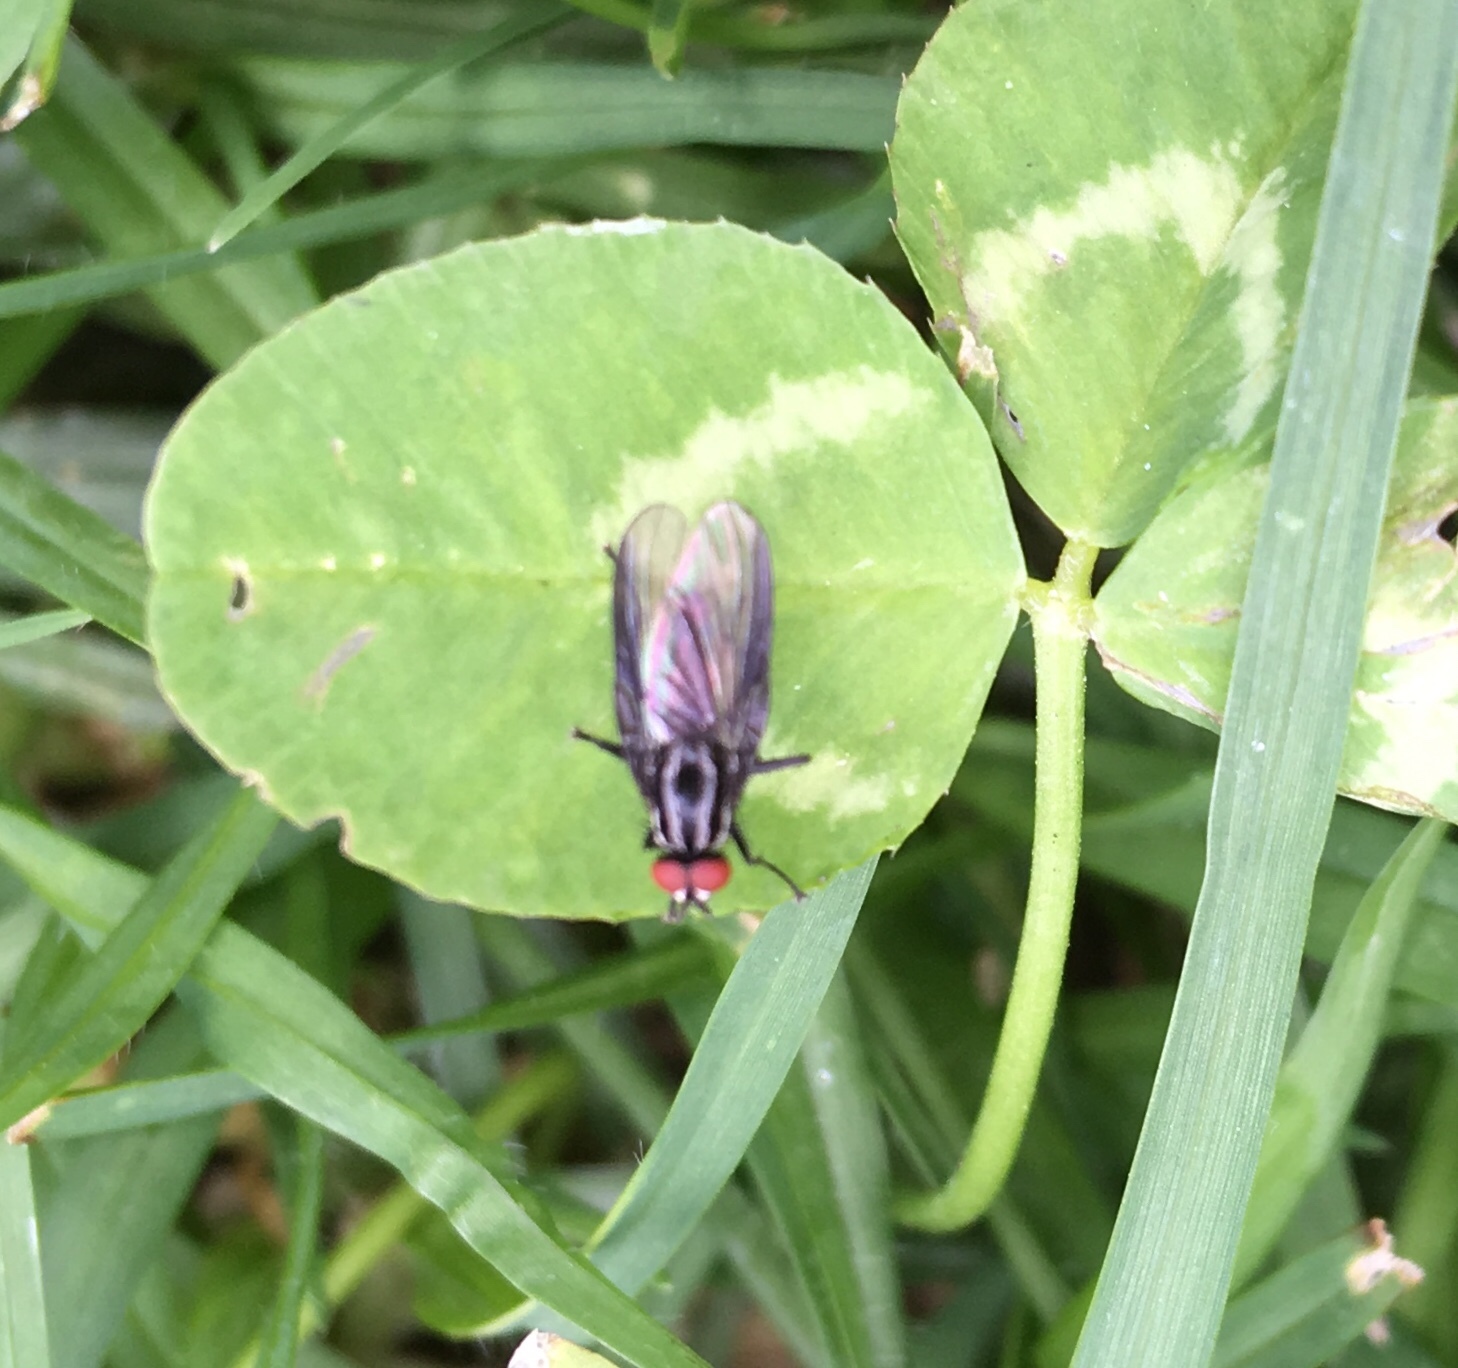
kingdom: Animalia
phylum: Arthropoda
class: Insecta
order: Diptera
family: Anthomyiidae
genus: Anthomyia
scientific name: Anthomyia lindigii
